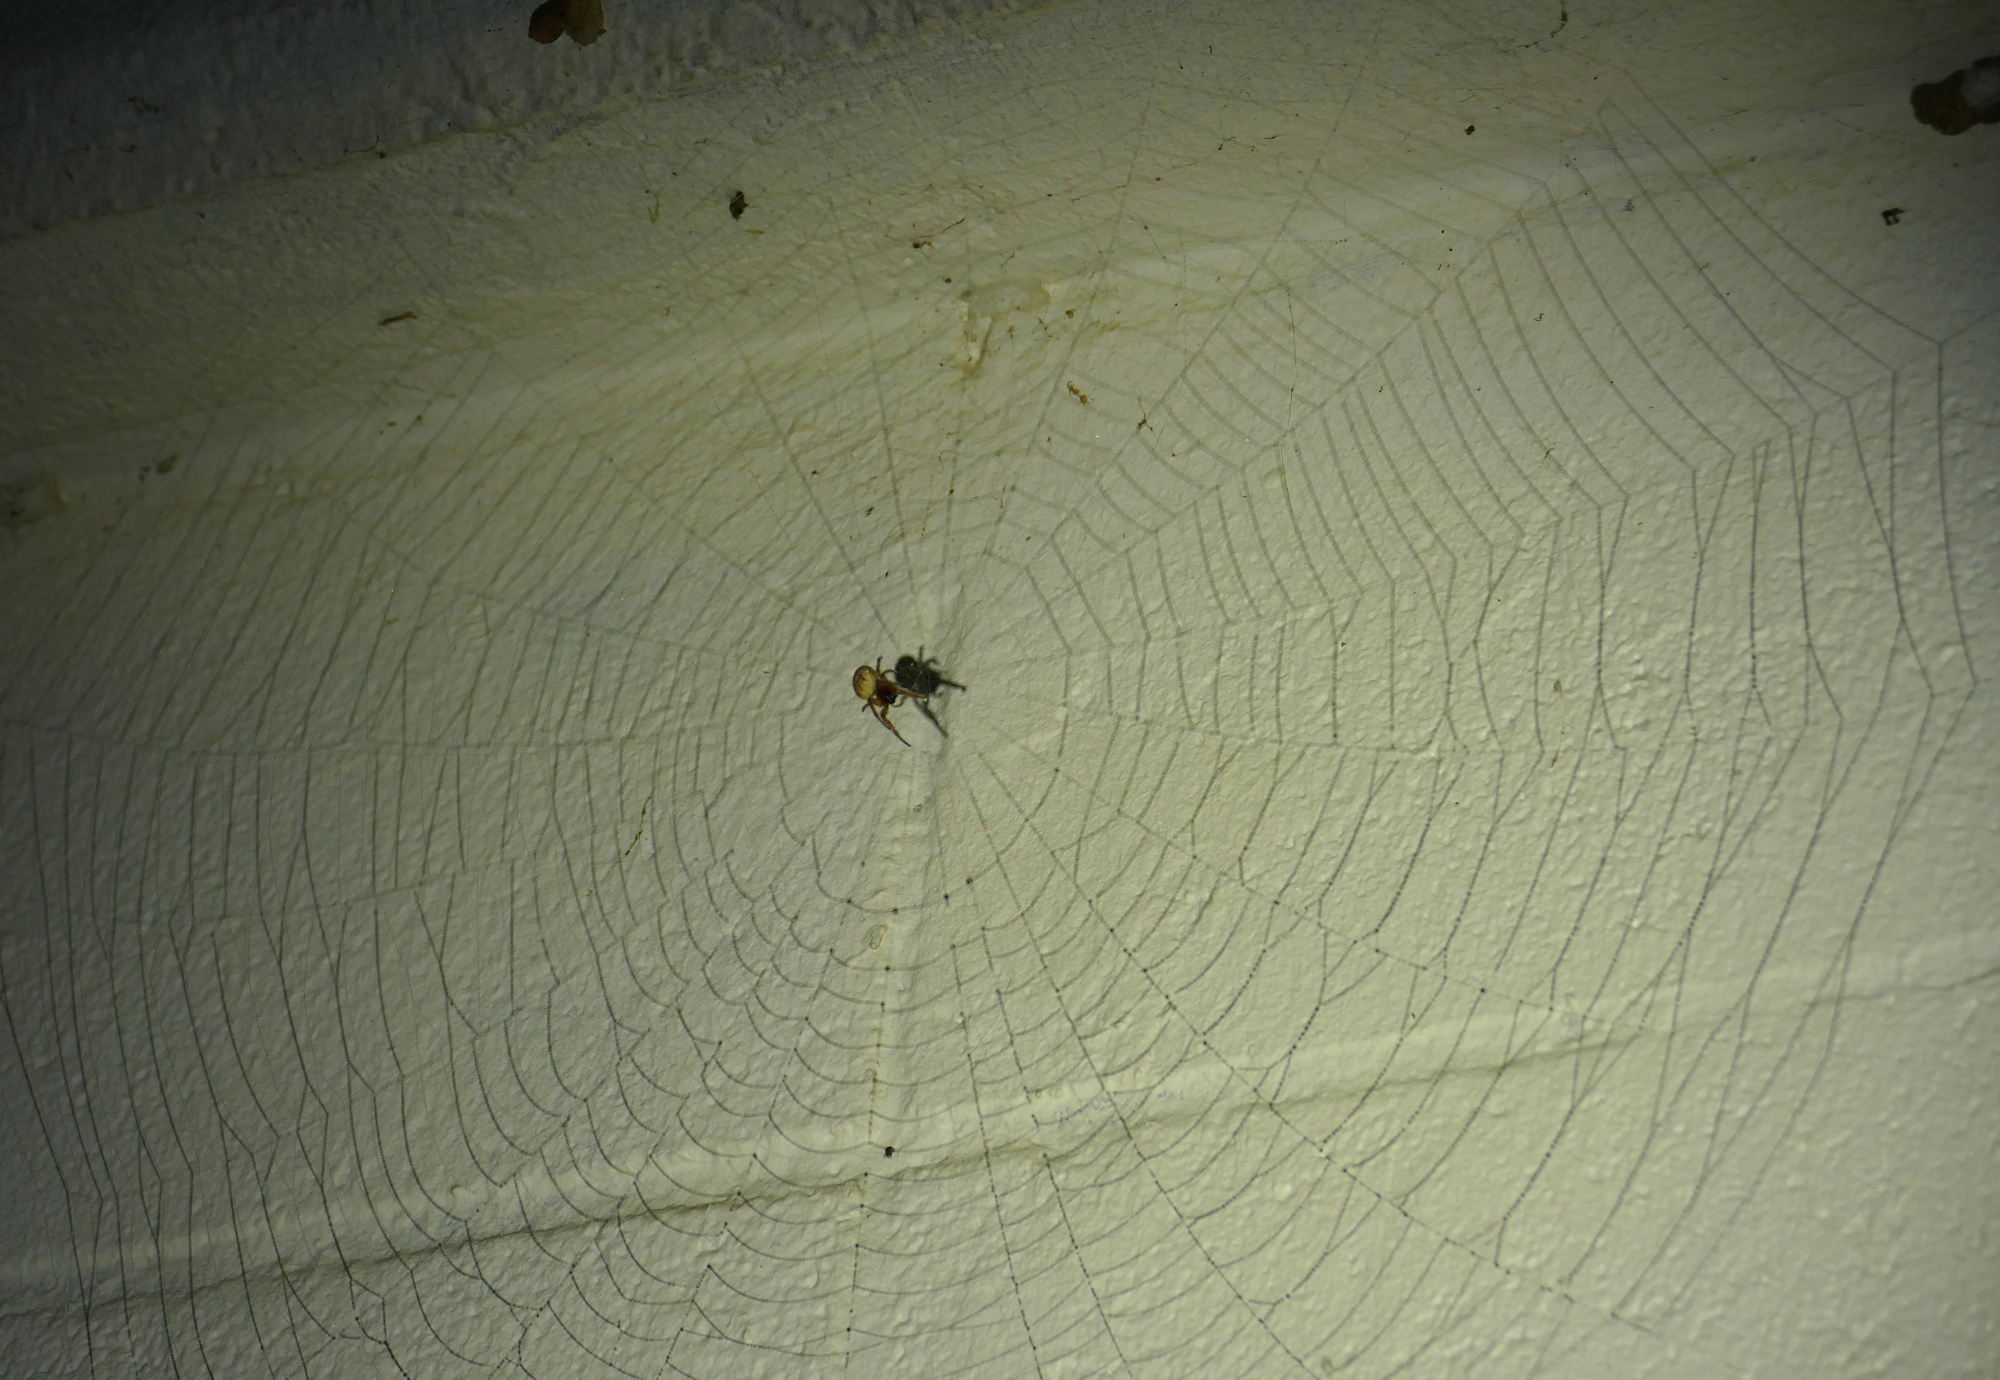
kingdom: Animalia
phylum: Arthropoda
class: Arachnida
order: Araneae
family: Araneidae
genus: Metazygia
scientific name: Metazygia wittfeldae
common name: Orb weavers
